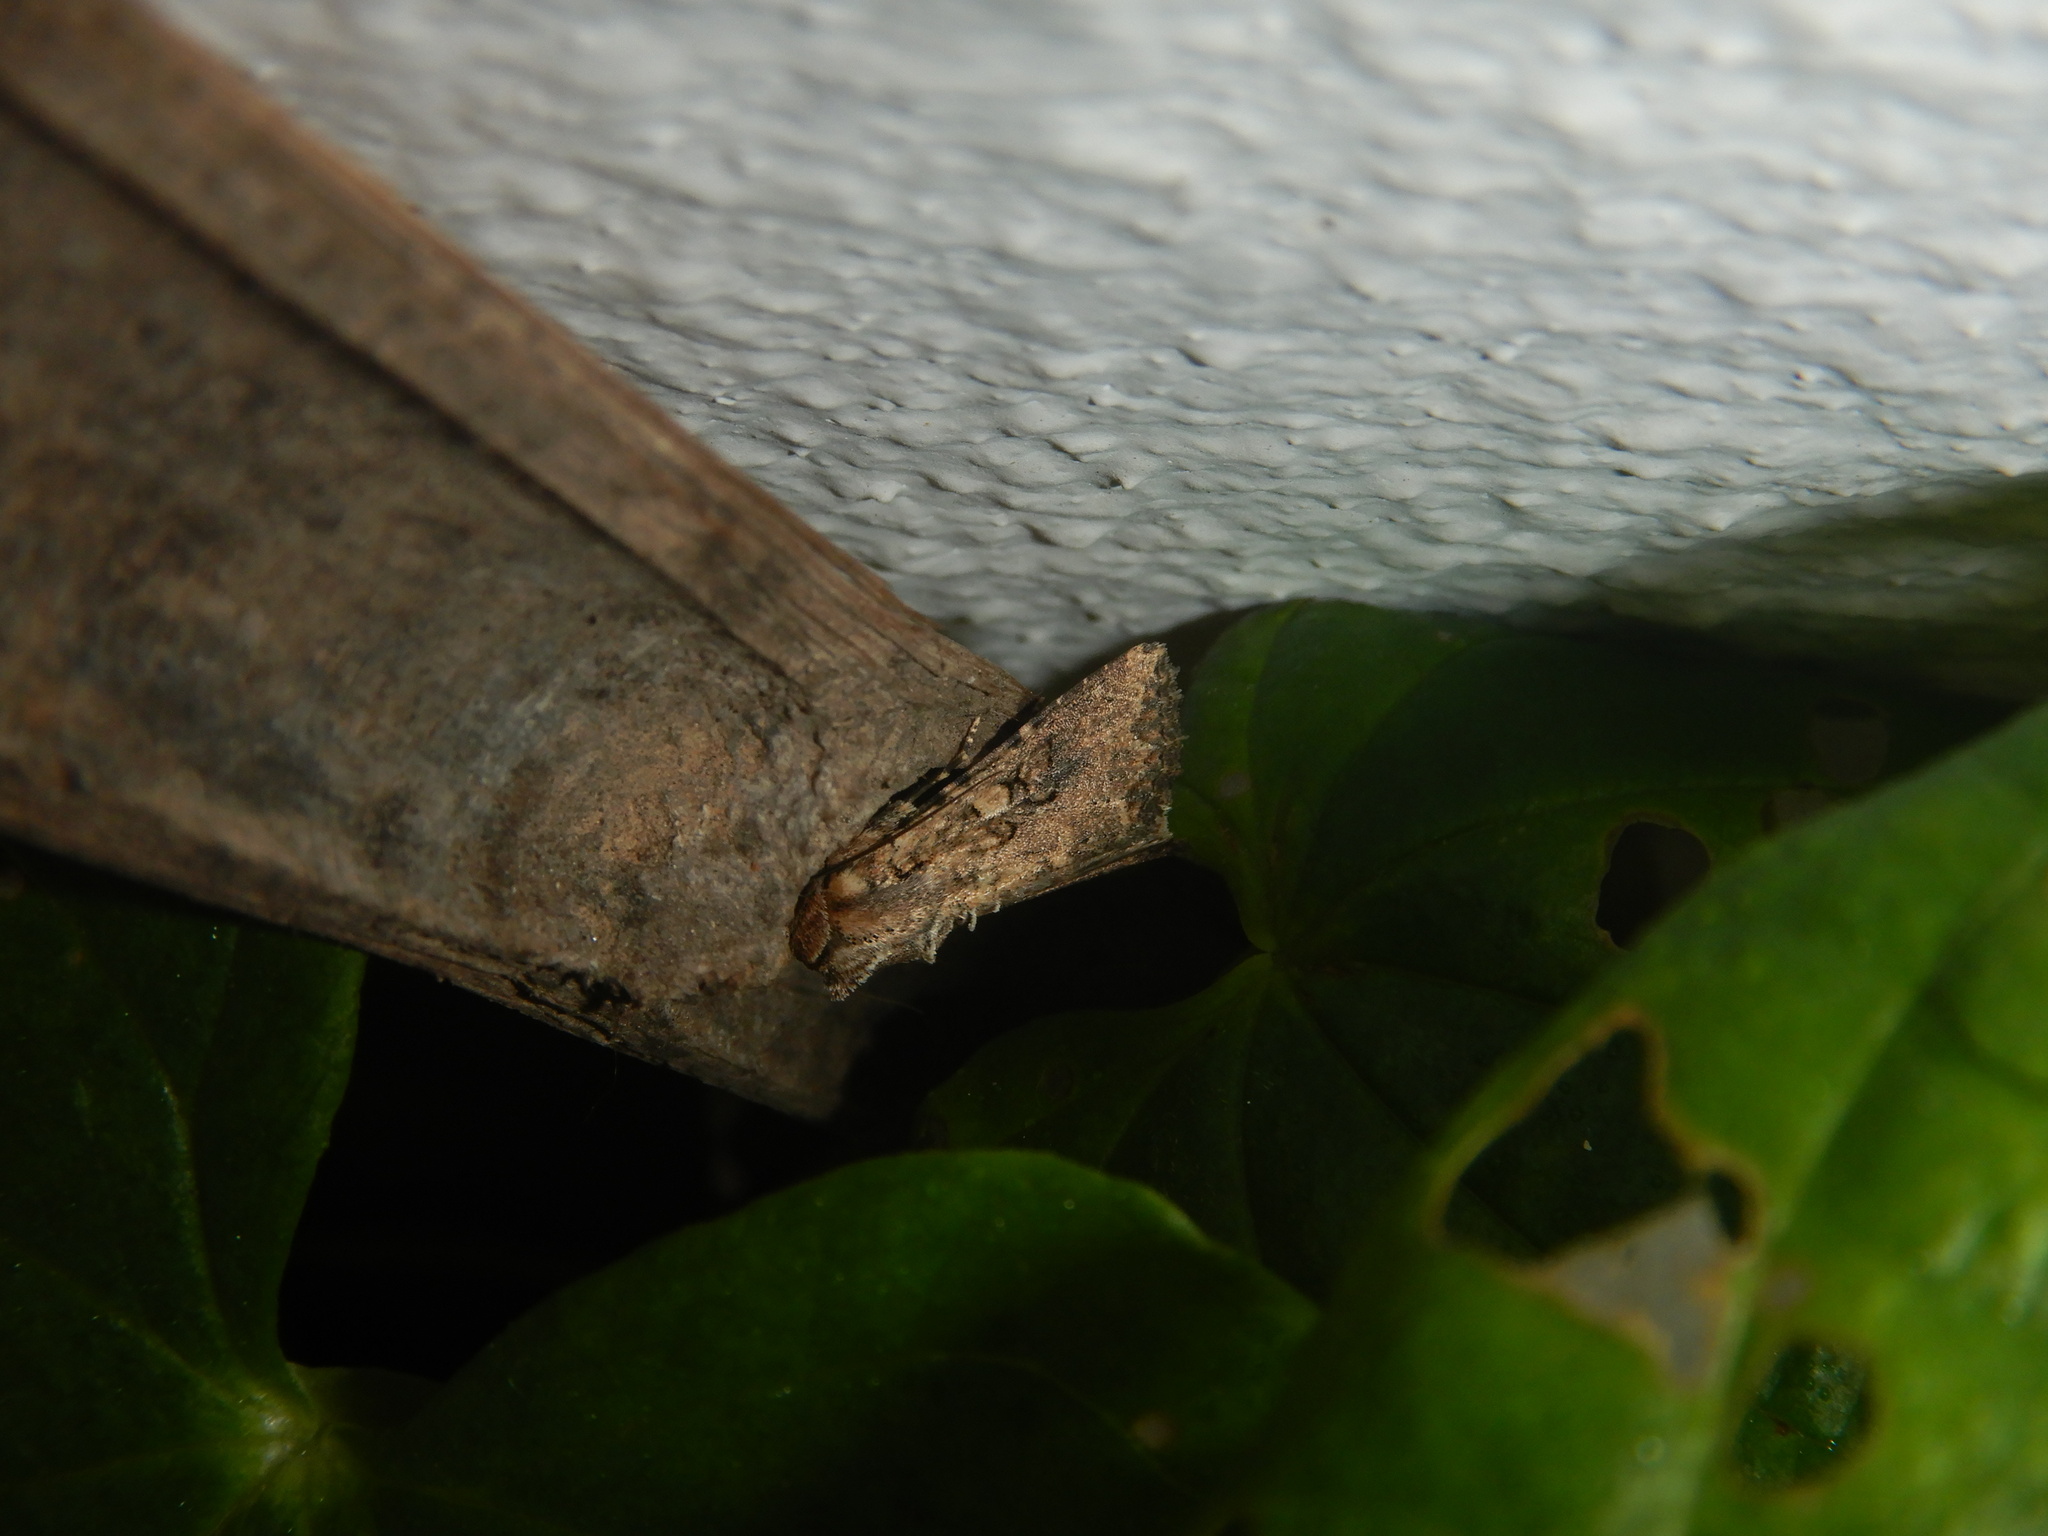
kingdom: Animalia
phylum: Arthropoda
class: Insecta
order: Lepidoptera
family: Noctuidae
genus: Mythimna
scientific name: Mythimna languida
